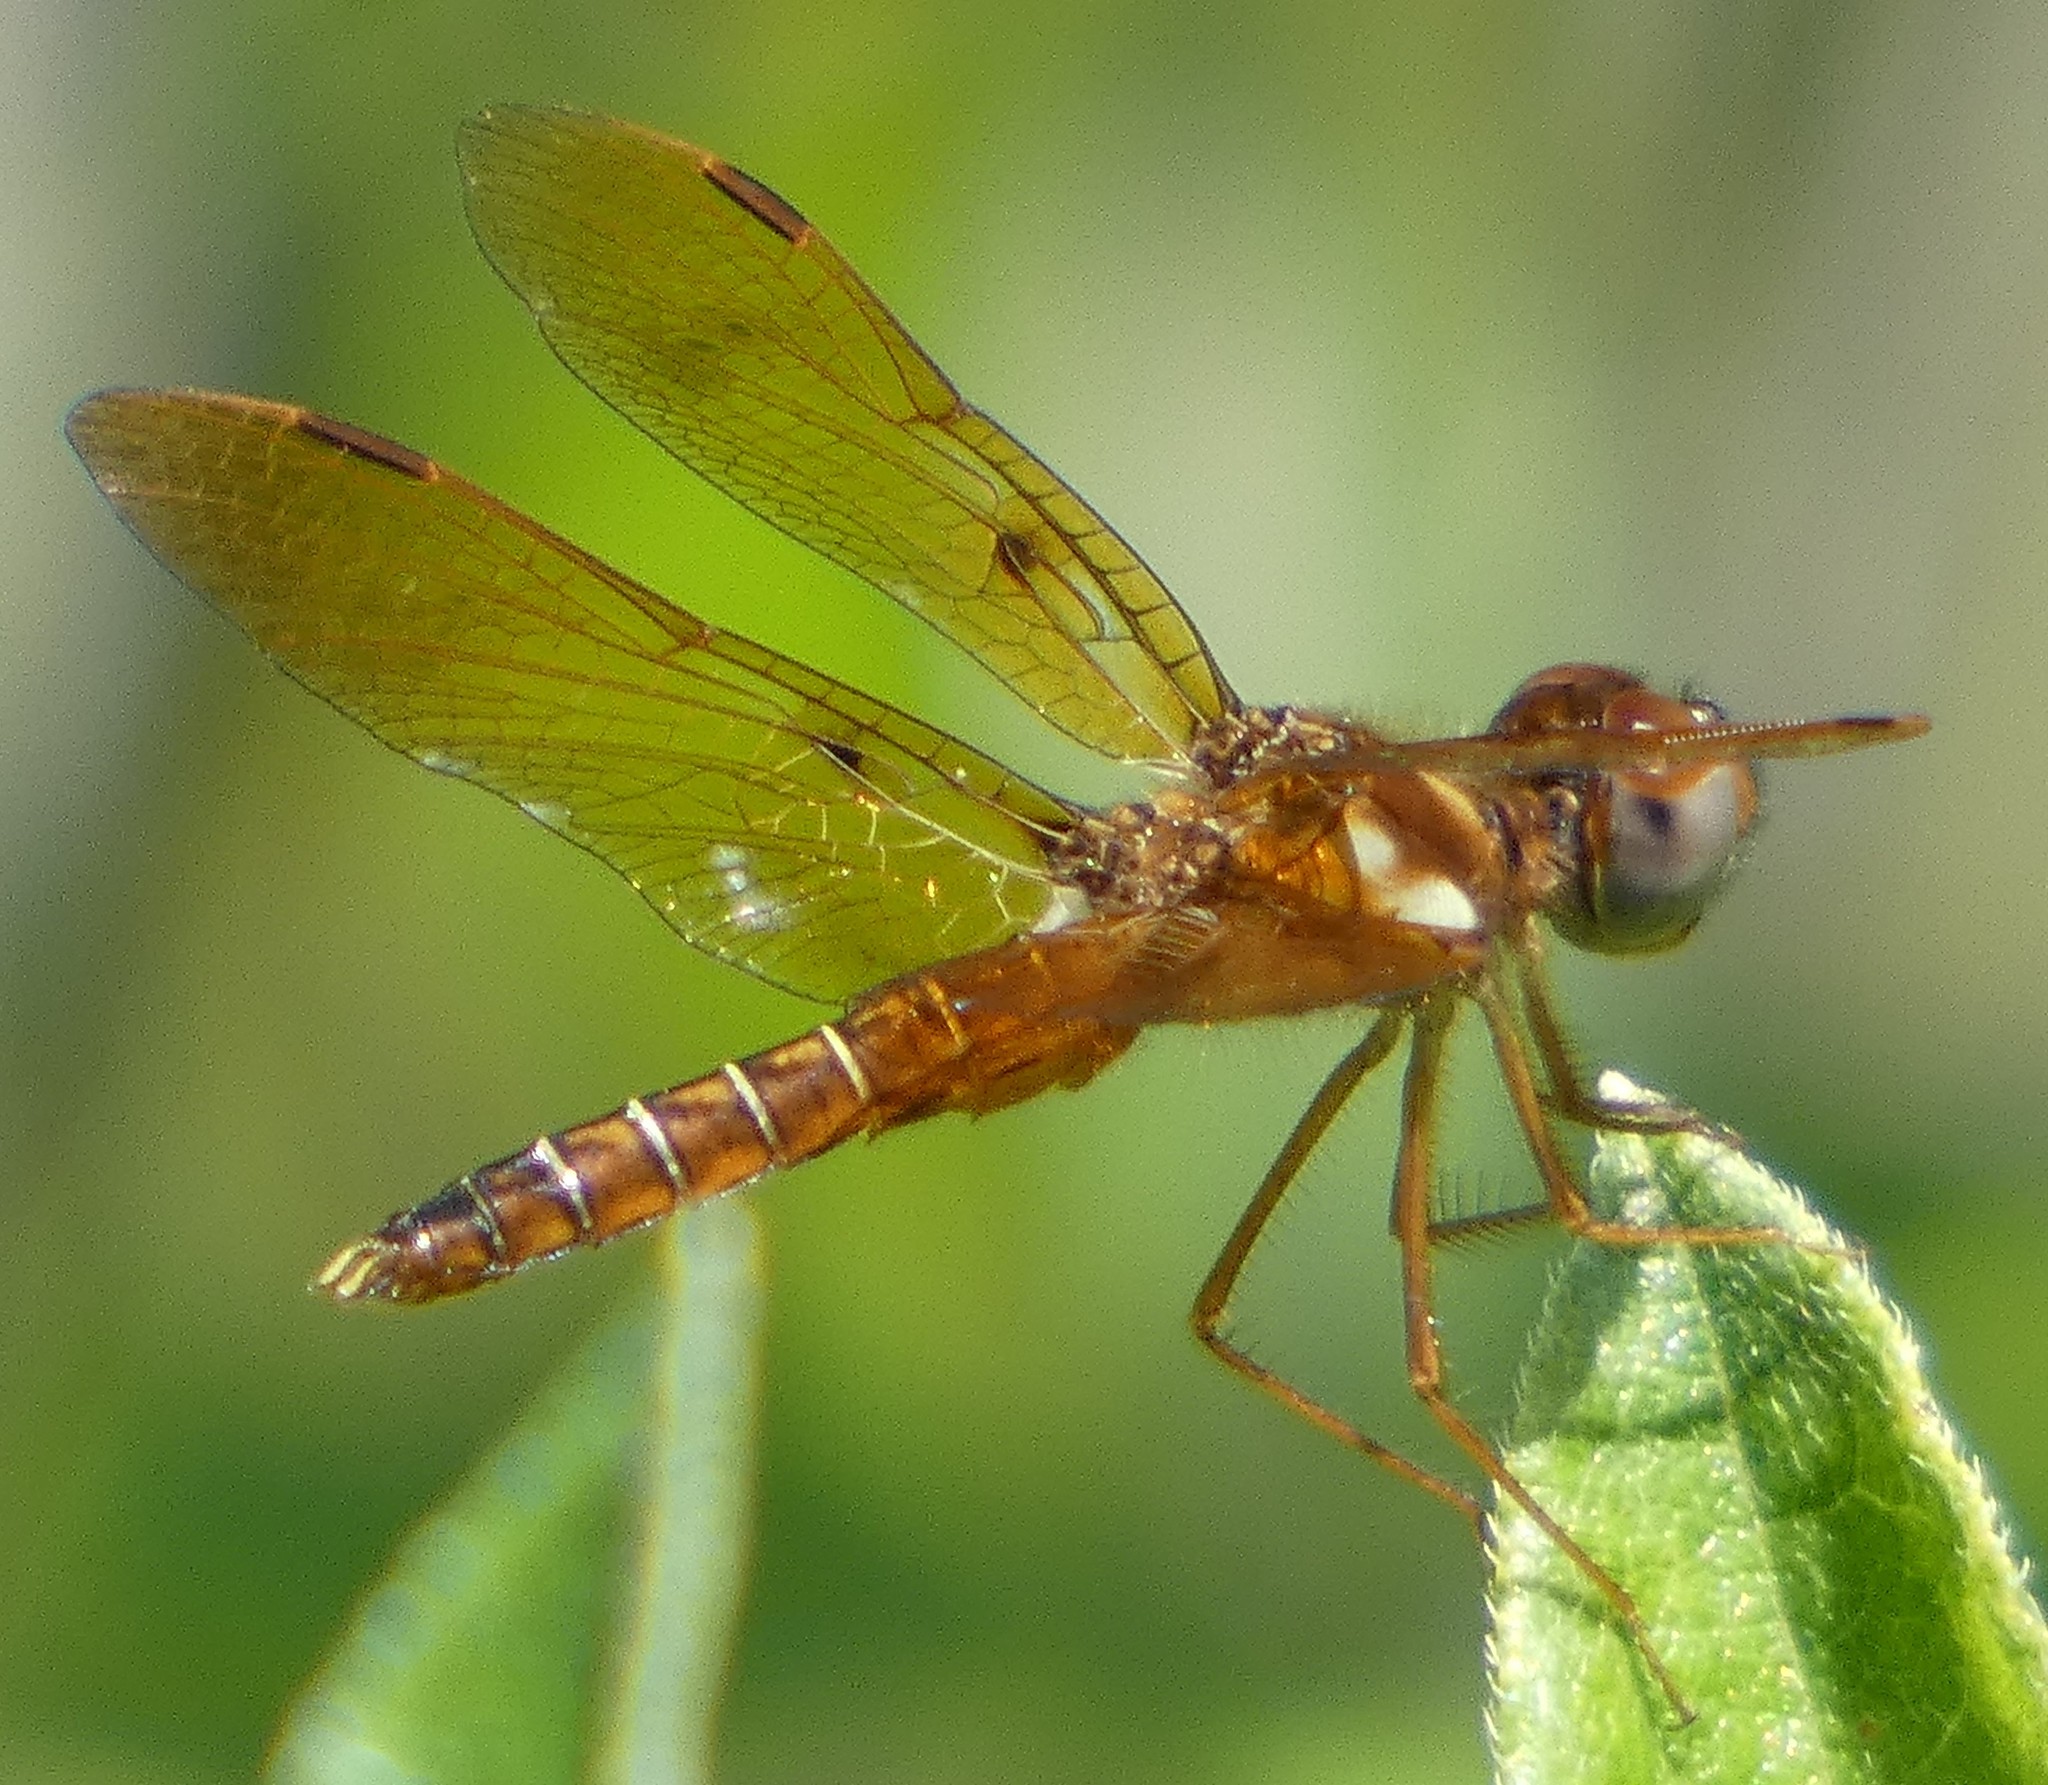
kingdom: Animalia
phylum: Arthropoda
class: Insecta
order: Odonata
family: Libellulidae
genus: Perithemis
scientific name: Perithemis tenera
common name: Eastern amberwing
